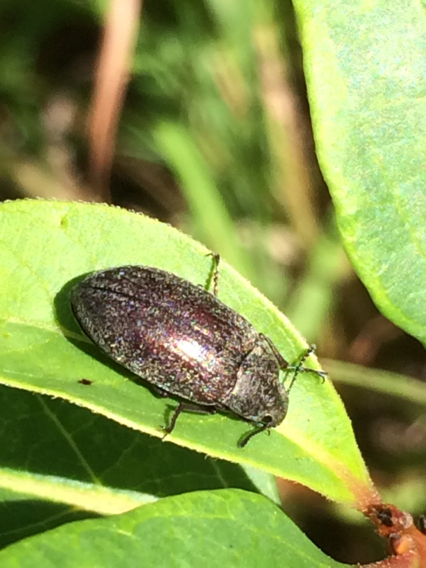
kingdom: Animalia
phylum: Arthropoda
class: Insecta
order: Coleoptera
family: Tenebrionidae
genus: Bothrotes
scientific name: Bothrotes canaliculatus
